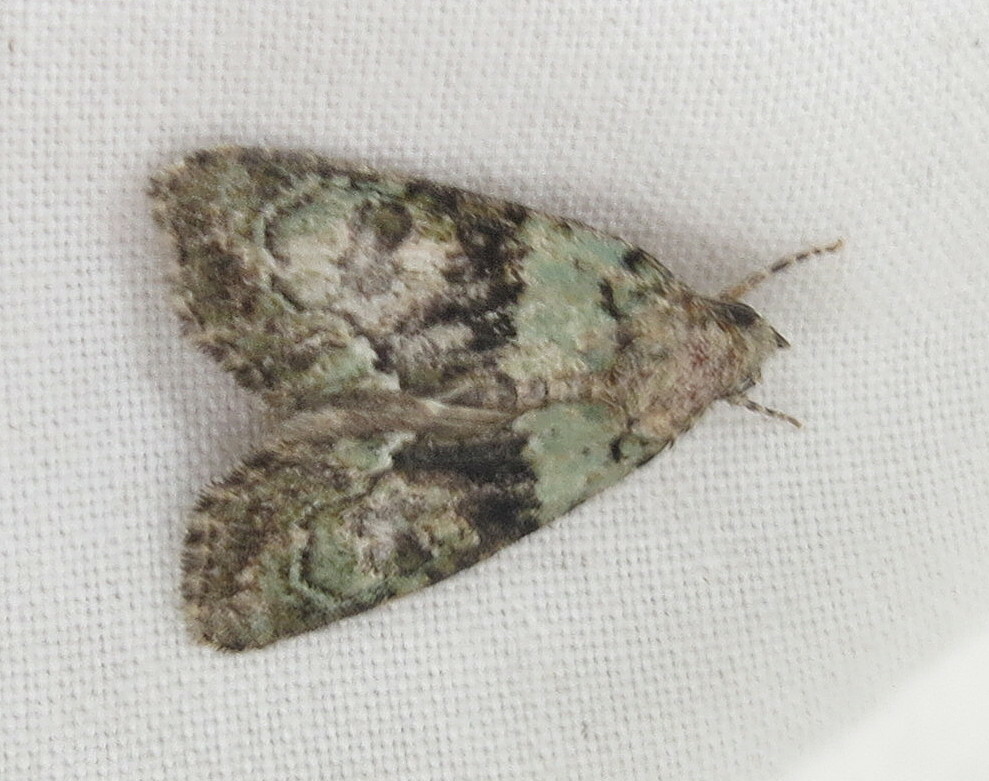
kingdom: Animalia
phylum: Arthropoda
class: Insecta
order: Lepidoptera
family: Noctuidae
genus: Cryphia
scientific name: Cryphia algae
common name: Tree-lichen beauty
